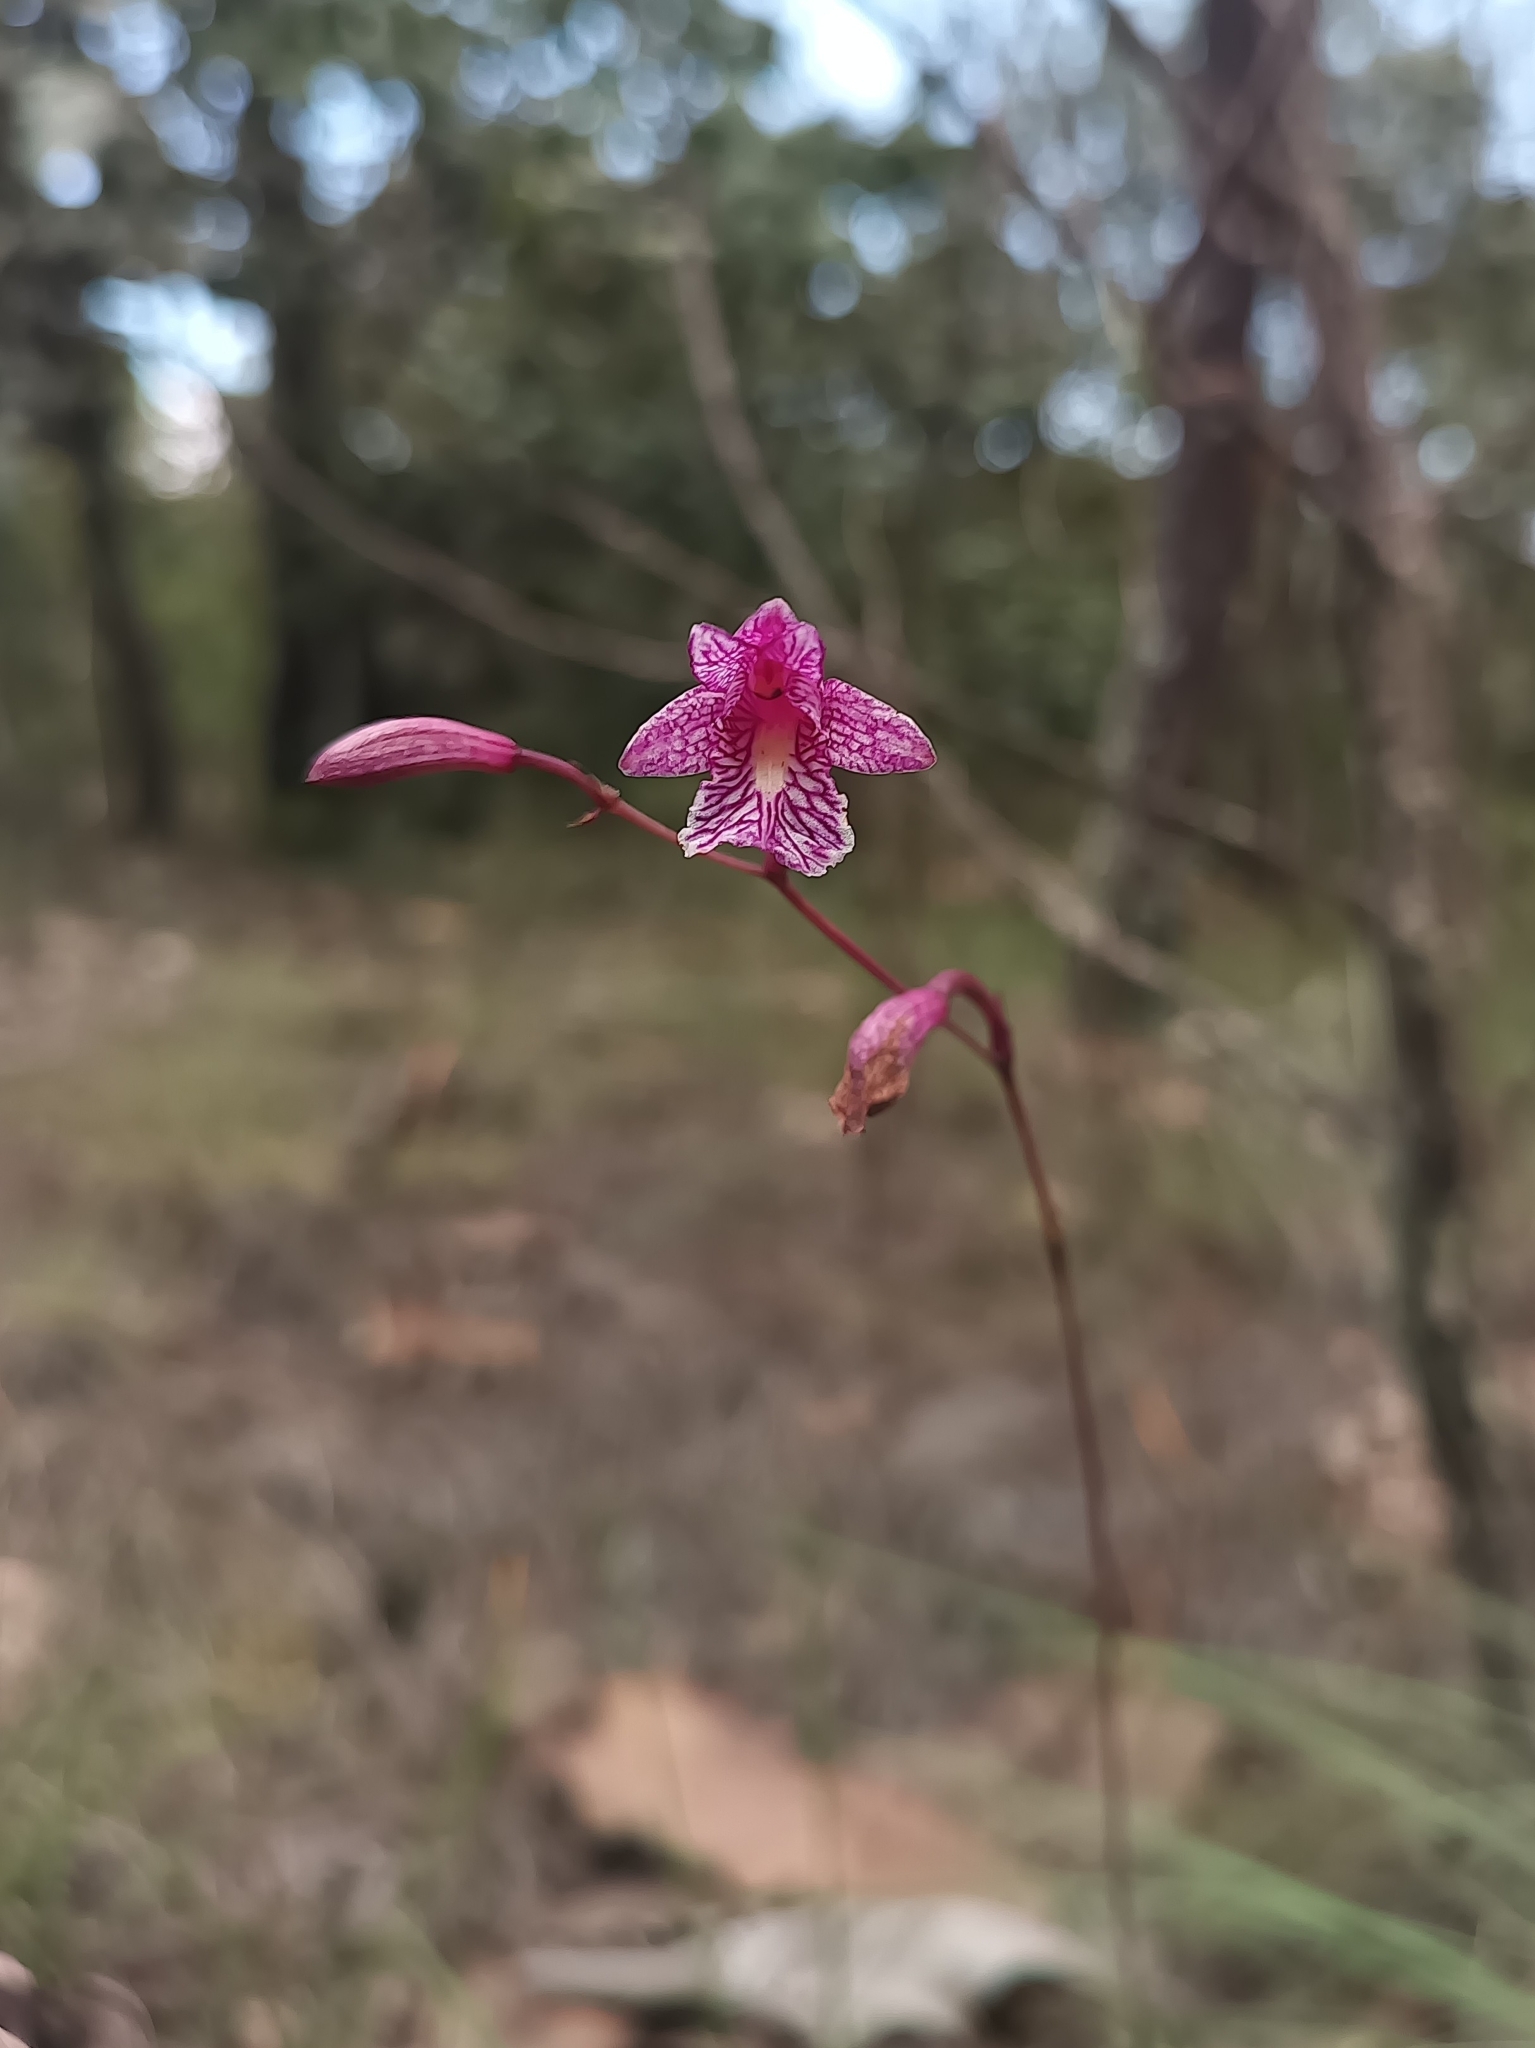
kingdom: Plantae
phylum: Tracheophyta
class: Liliopsida
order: Asparagales
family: Orchidaceae
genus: Bletia
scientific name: Bletia greenwoodiana
